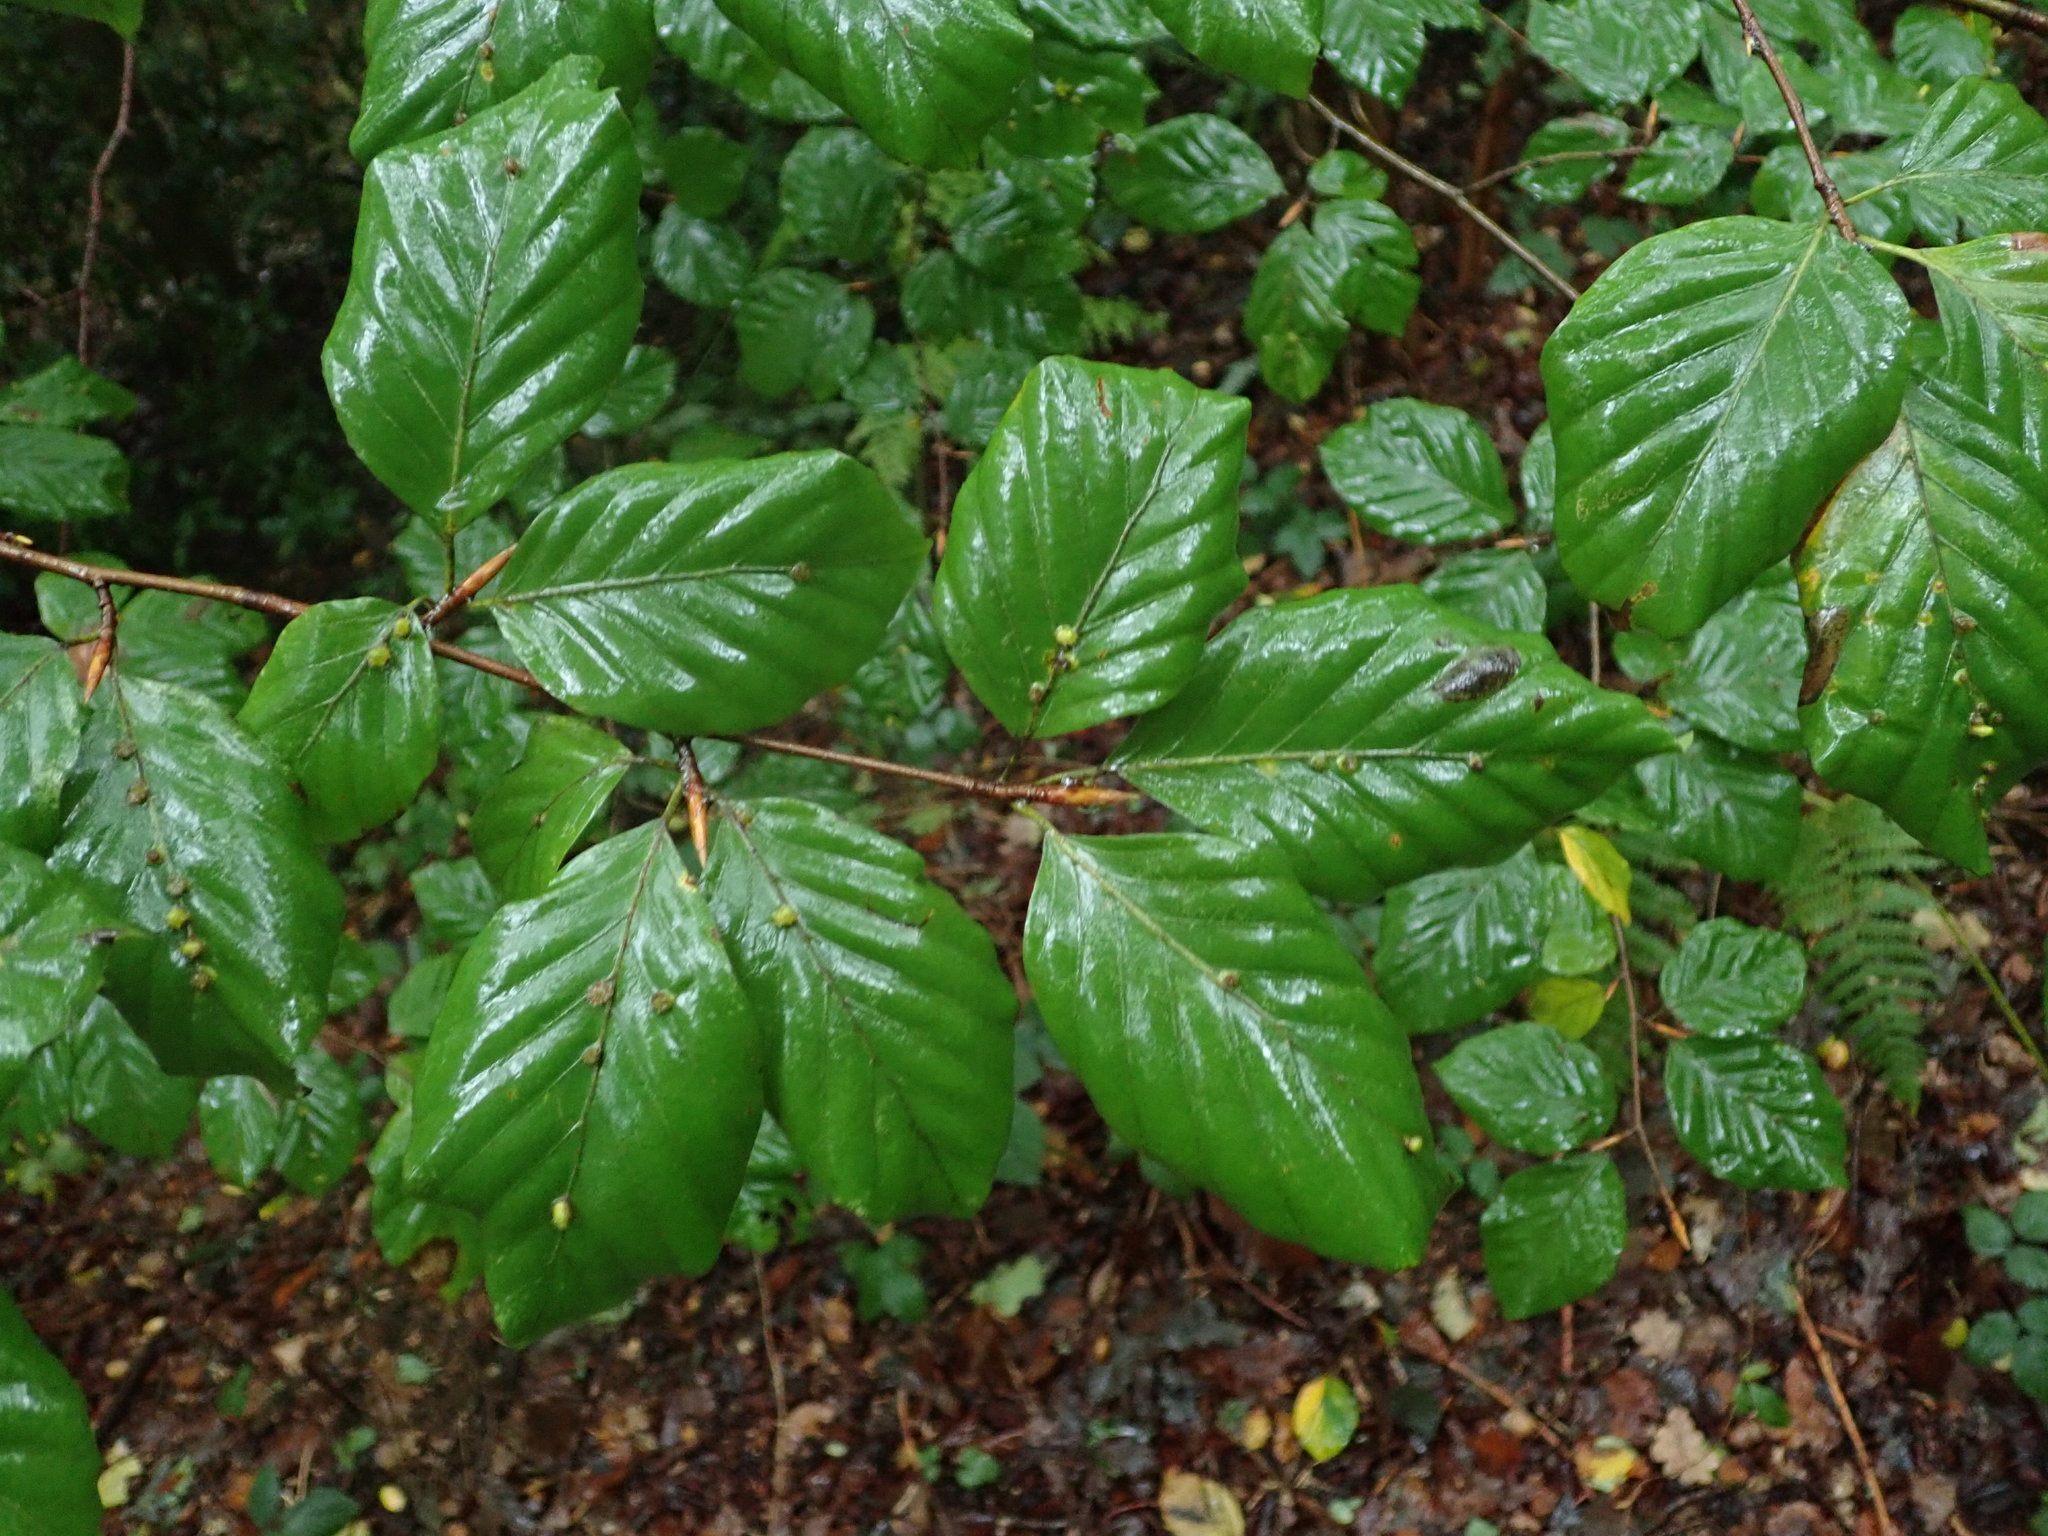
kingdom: Plantae
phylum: Tracheophyta
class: Magnoliopsida
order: Fagales
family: Fagaceae
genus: Fagus
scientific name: Fagus sylvatica
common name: Beech
